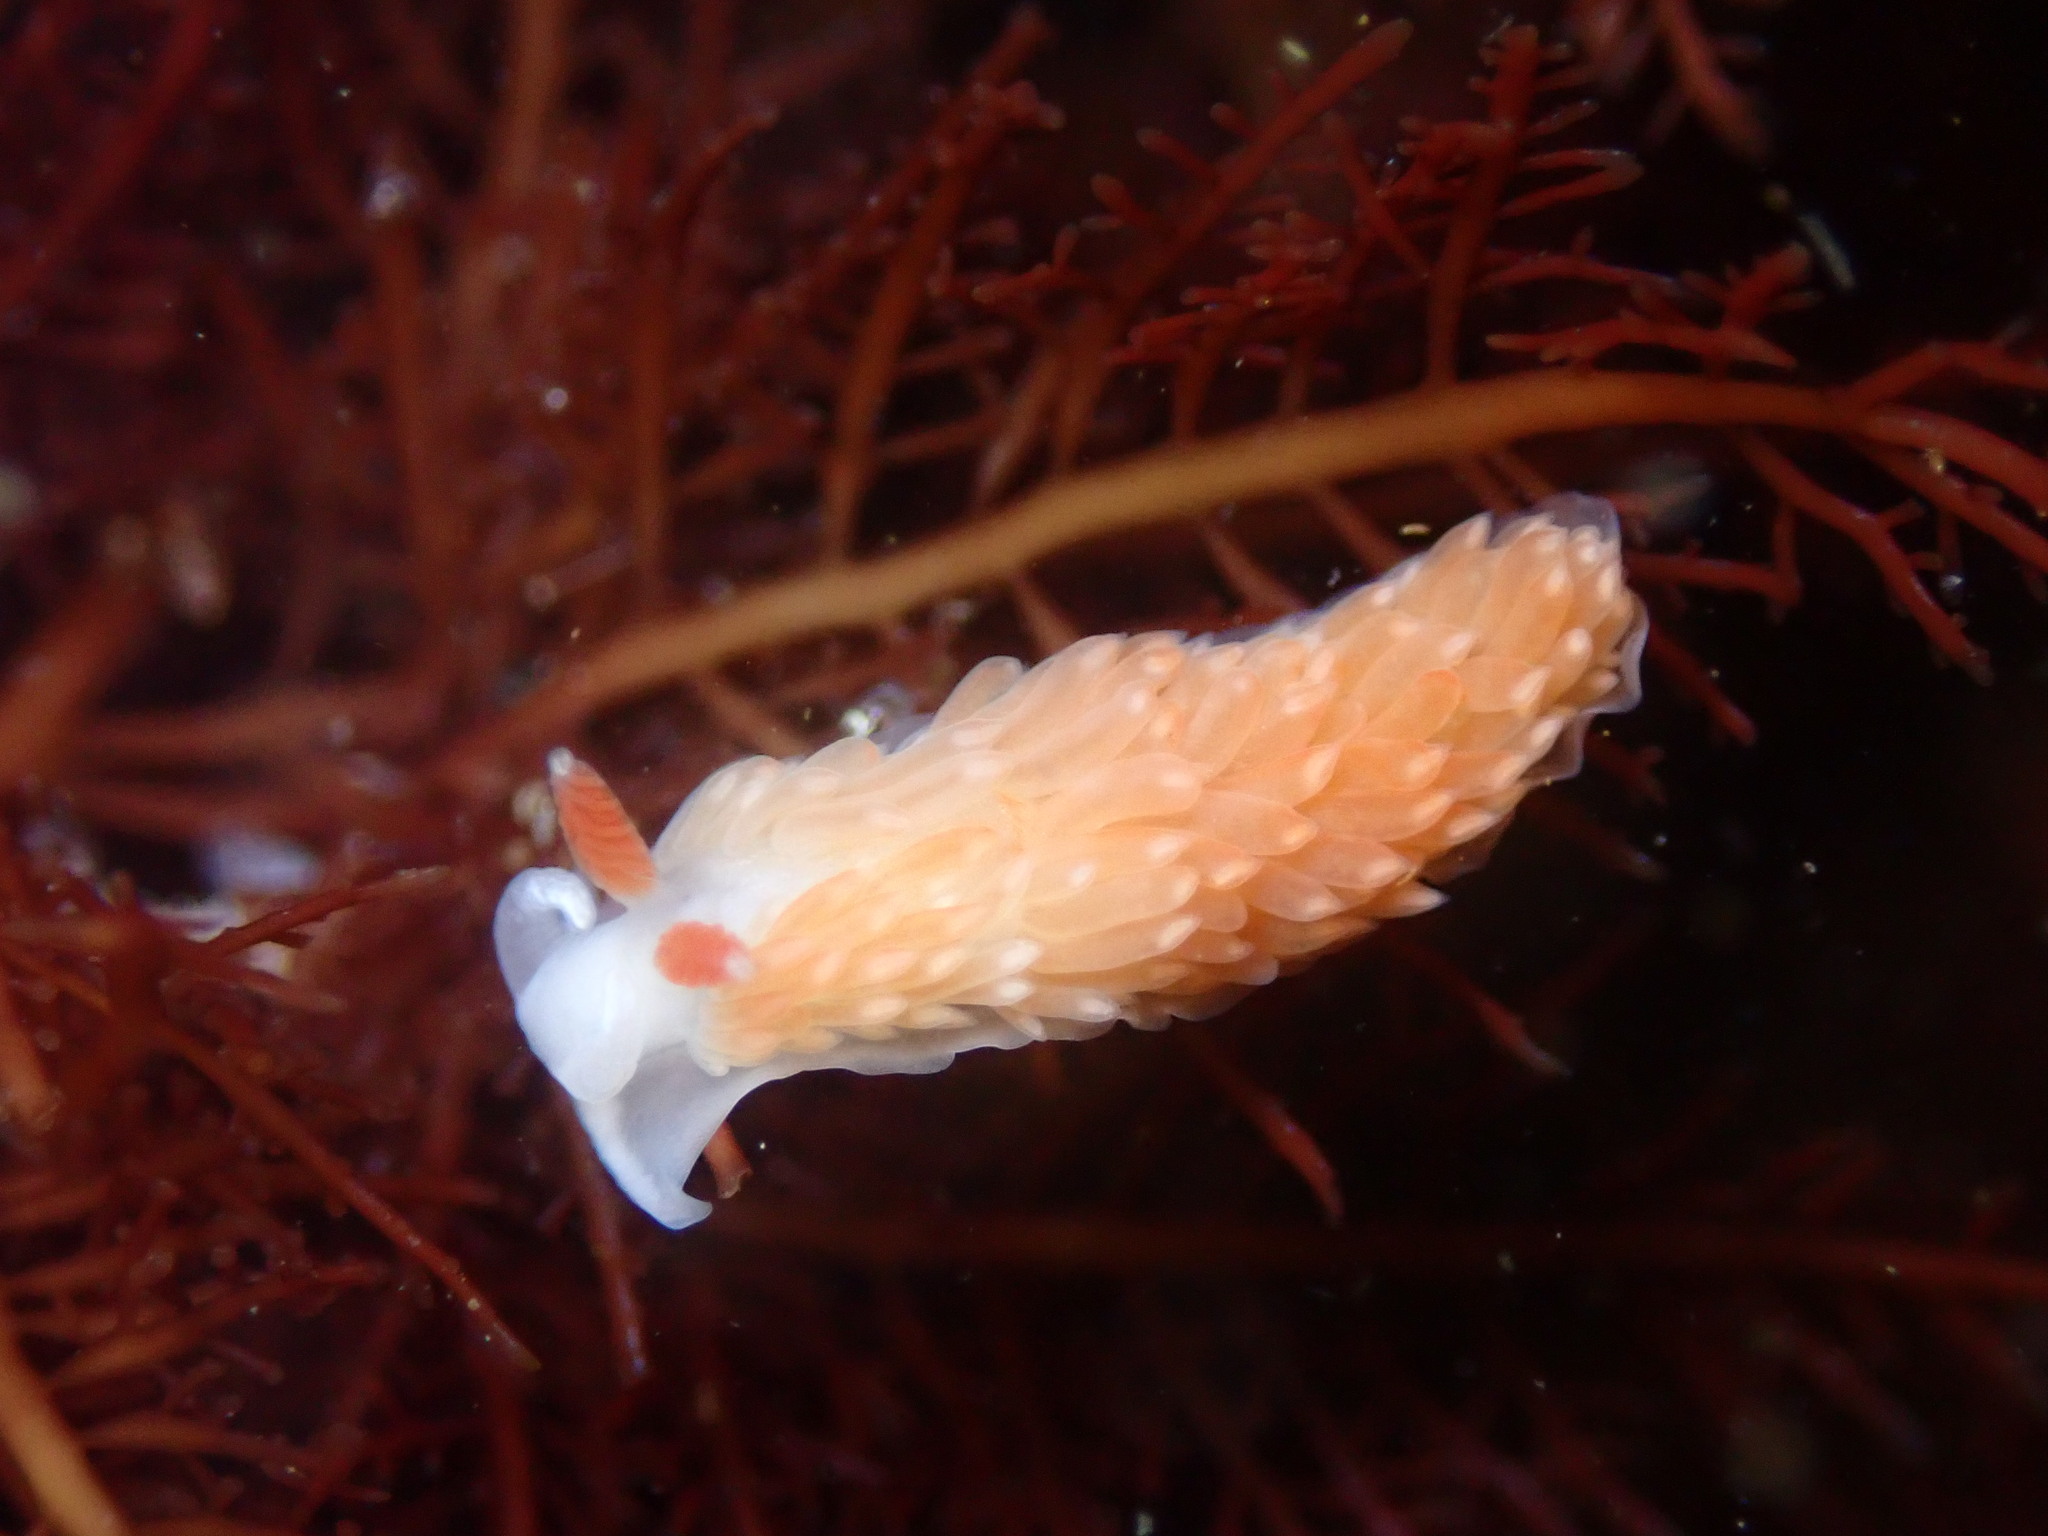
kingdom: Animalia
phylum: Mollusca
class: Gastropoda
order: Nudibranchia
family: Aeolidiidae
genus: Anteaeolidiella
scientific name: Anteaeolidiella oliviae
